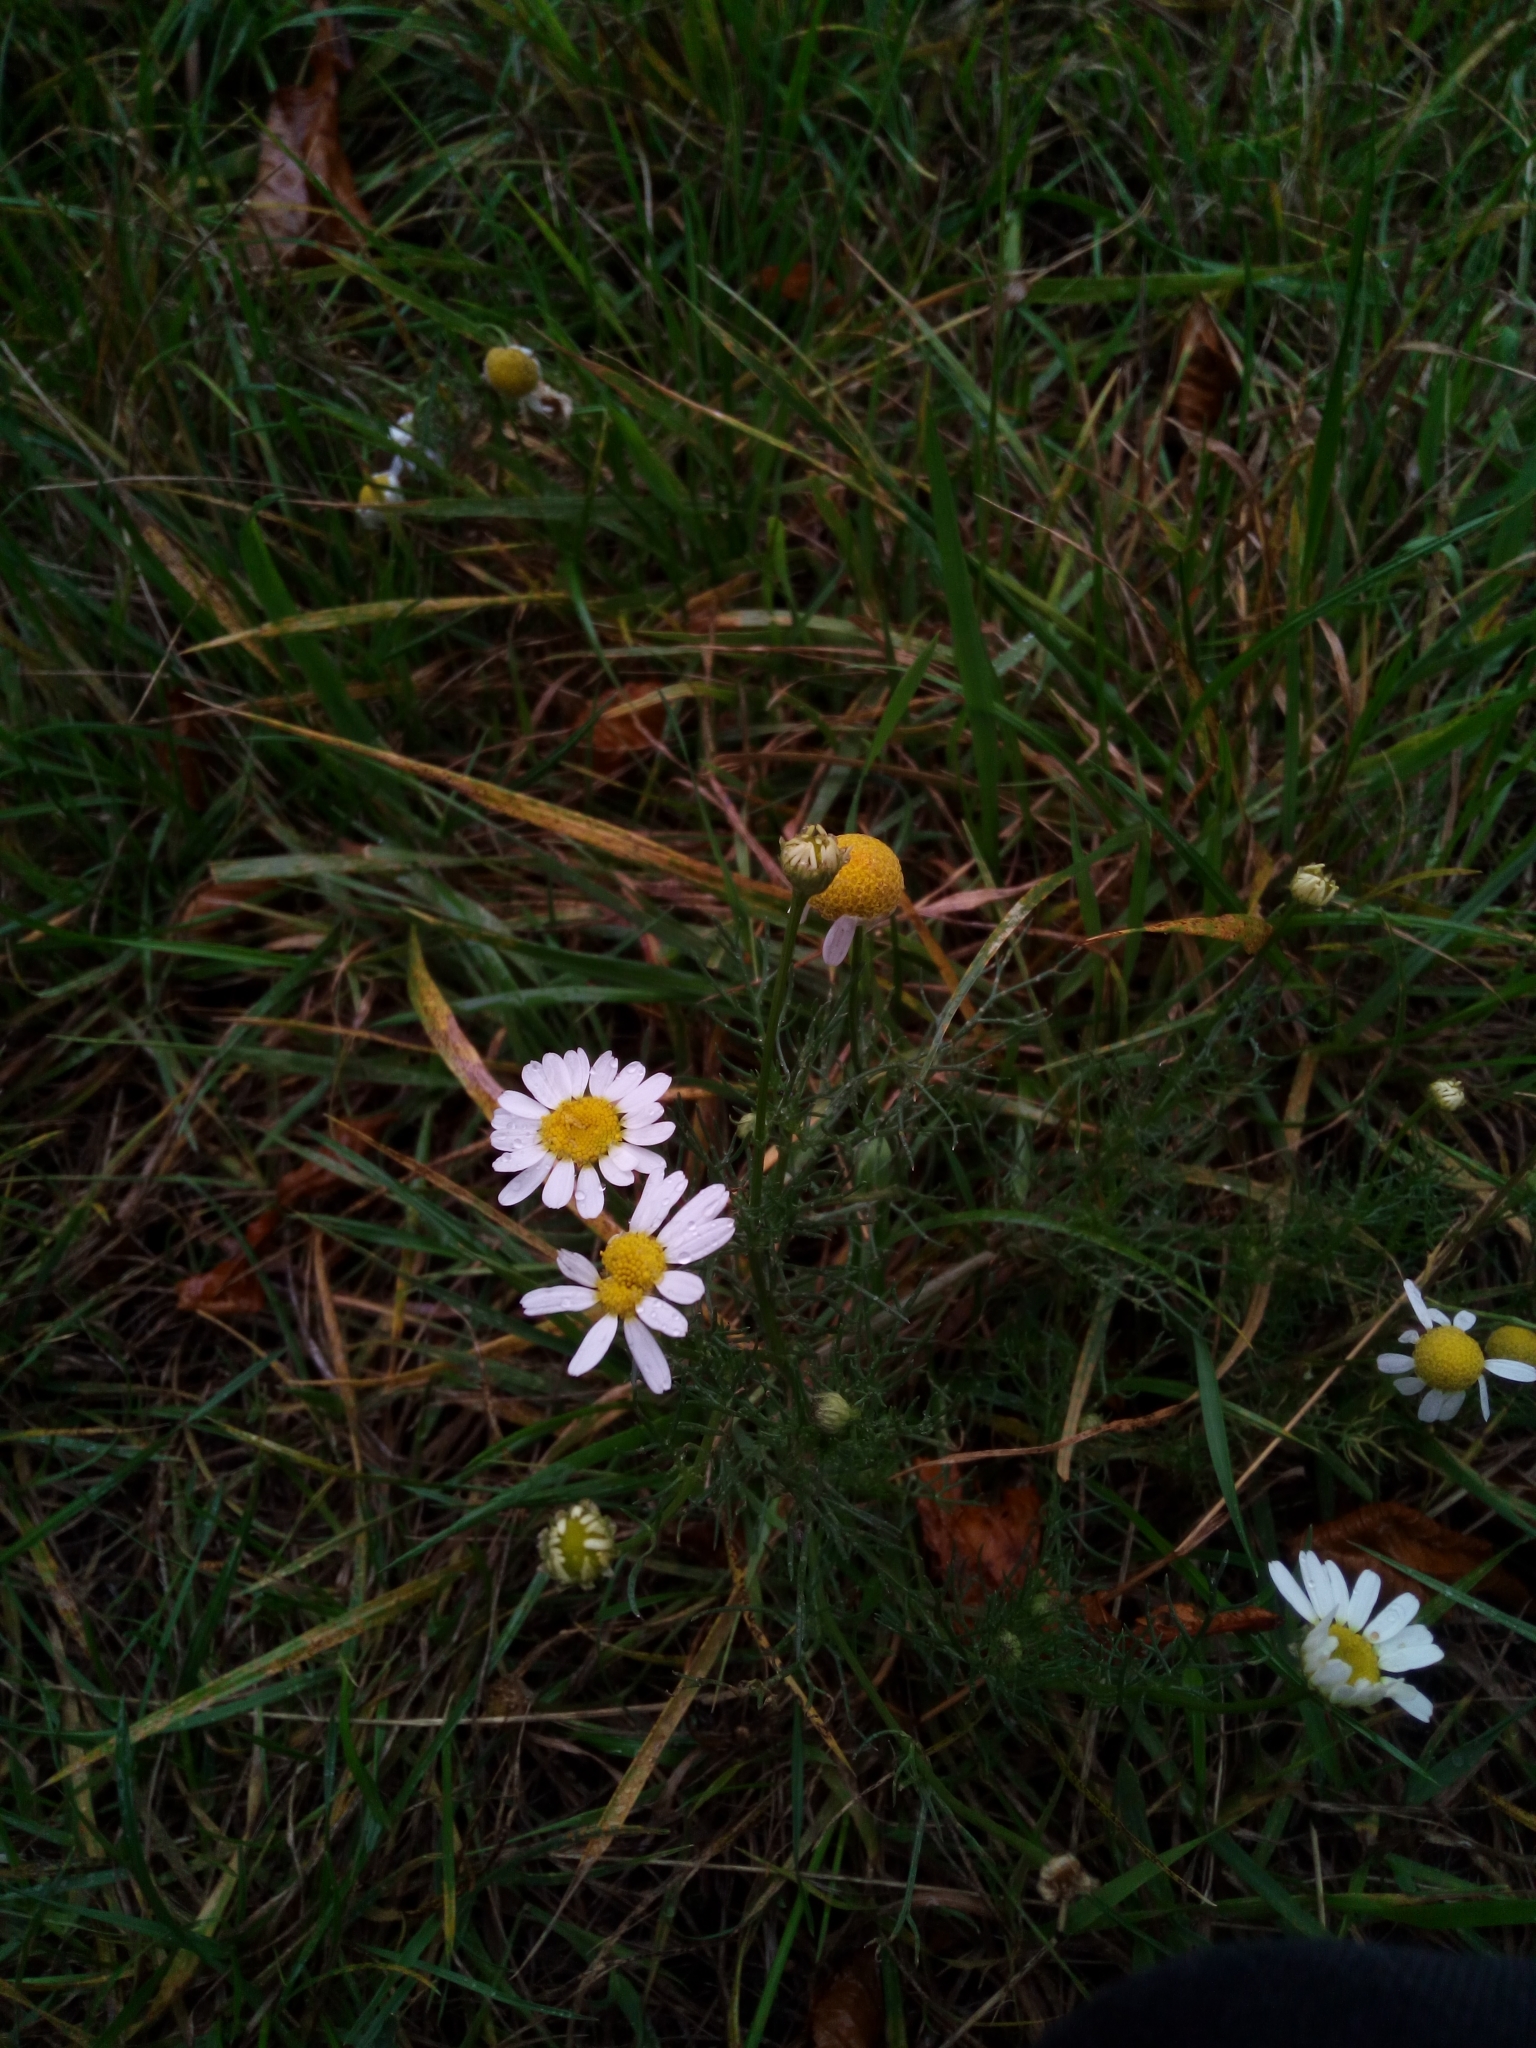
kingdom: Plantae
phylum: Tracheophyta
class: Magnoliopsida
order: Asterales
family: Asteraceae
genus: Tripleurospermum
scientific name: Tripleurospermum inodorum
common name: Scentless mayweed
